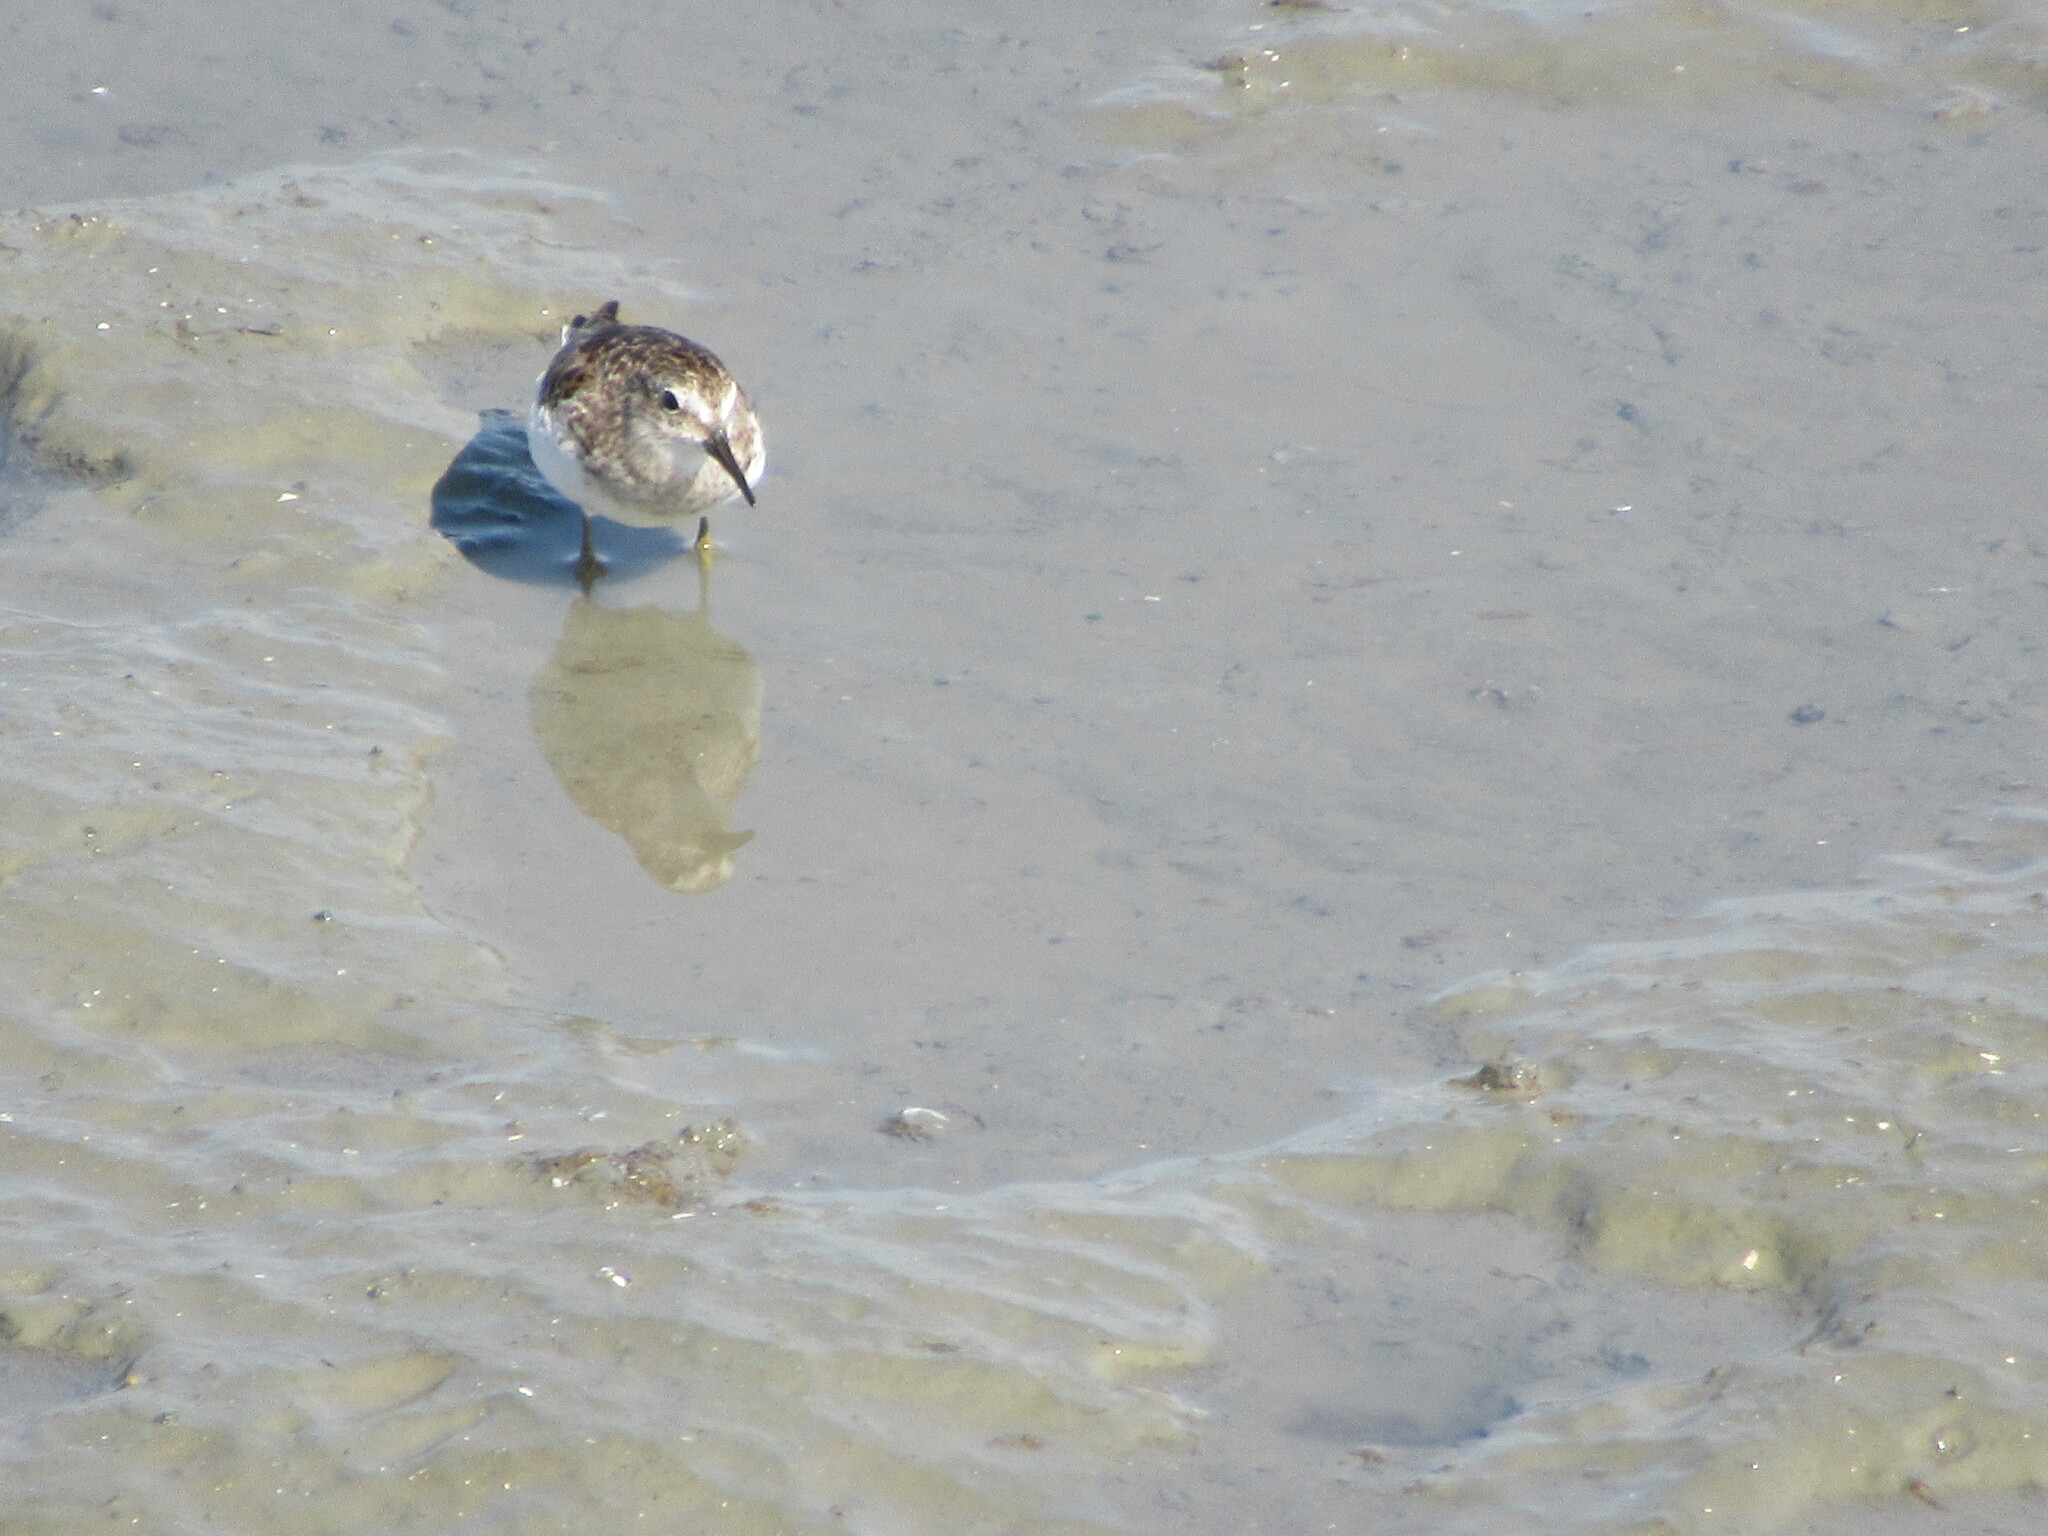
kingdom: Animalia
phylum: Chordata
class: Aves
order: Charadriiformes
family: Scolopacidae
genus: Calidris
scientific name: Calidris minutilla
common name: Least sandpiper
